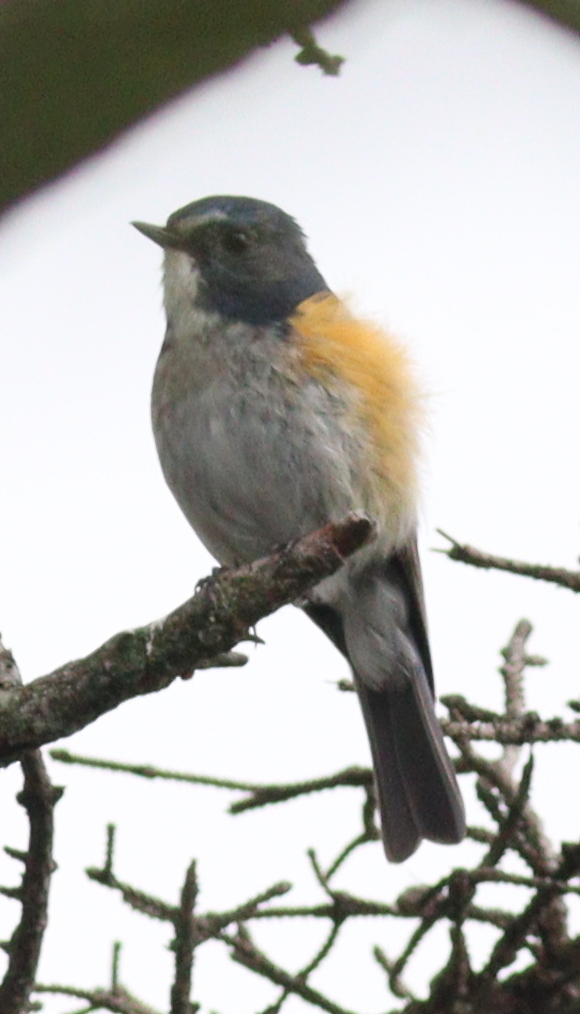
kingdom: Animalia
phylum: Chordata
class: Aves
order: Passeriformes
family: Muscicapidae
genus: Tarsiger
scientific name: Tarsiger cyanurus
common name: Red-flanked bluetail
